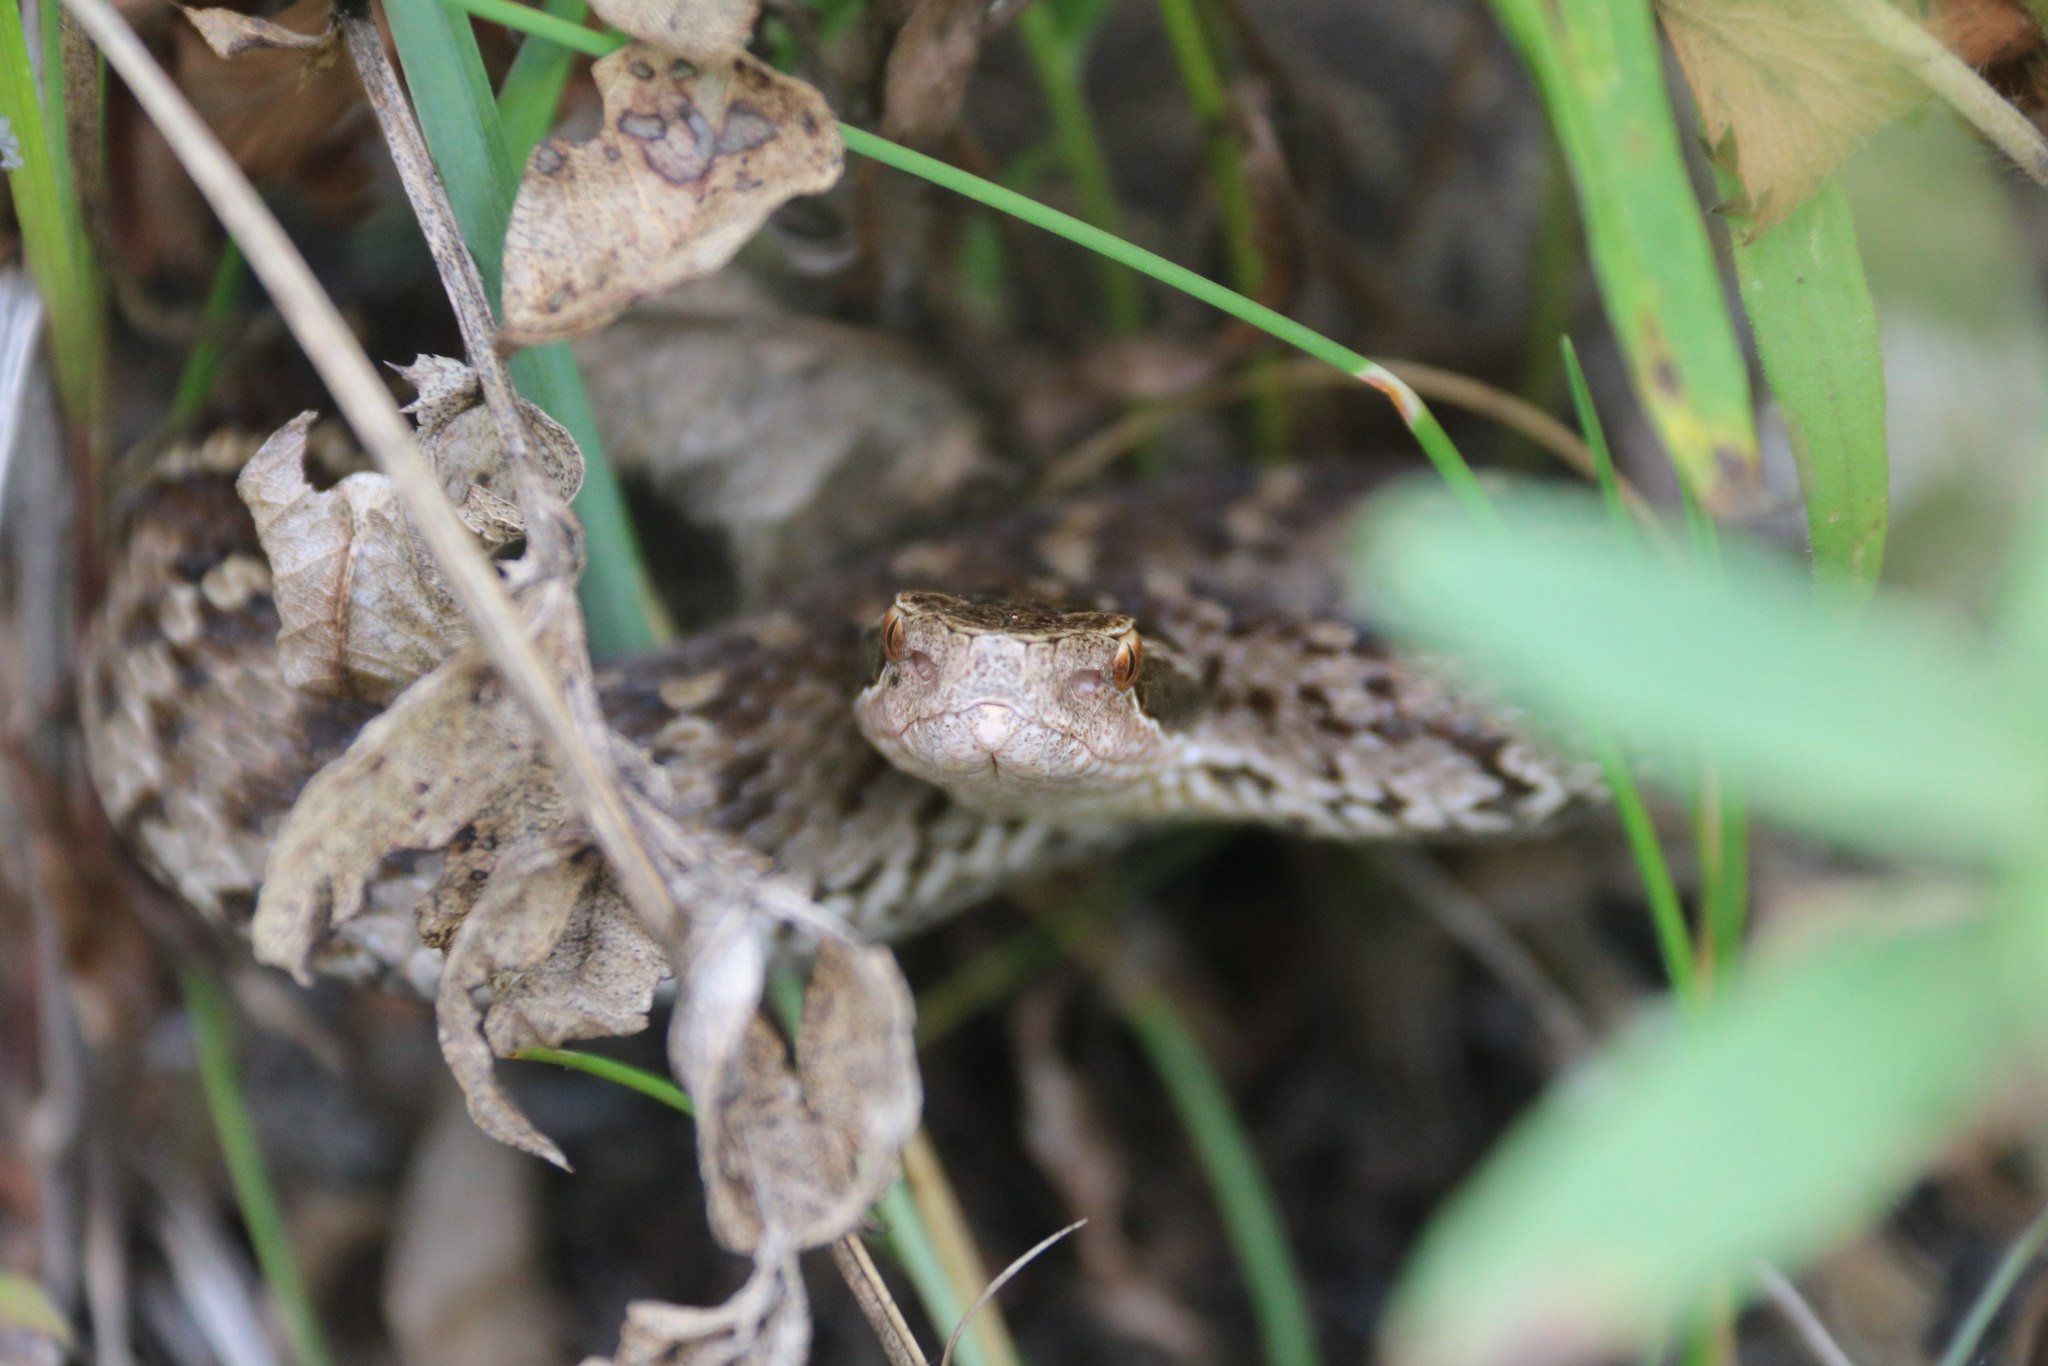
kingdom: Animalia
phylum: Chordata
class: Squamata
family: Viperidae
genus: Gloydius
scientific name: Gloydius halys
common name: Halys pit viper
